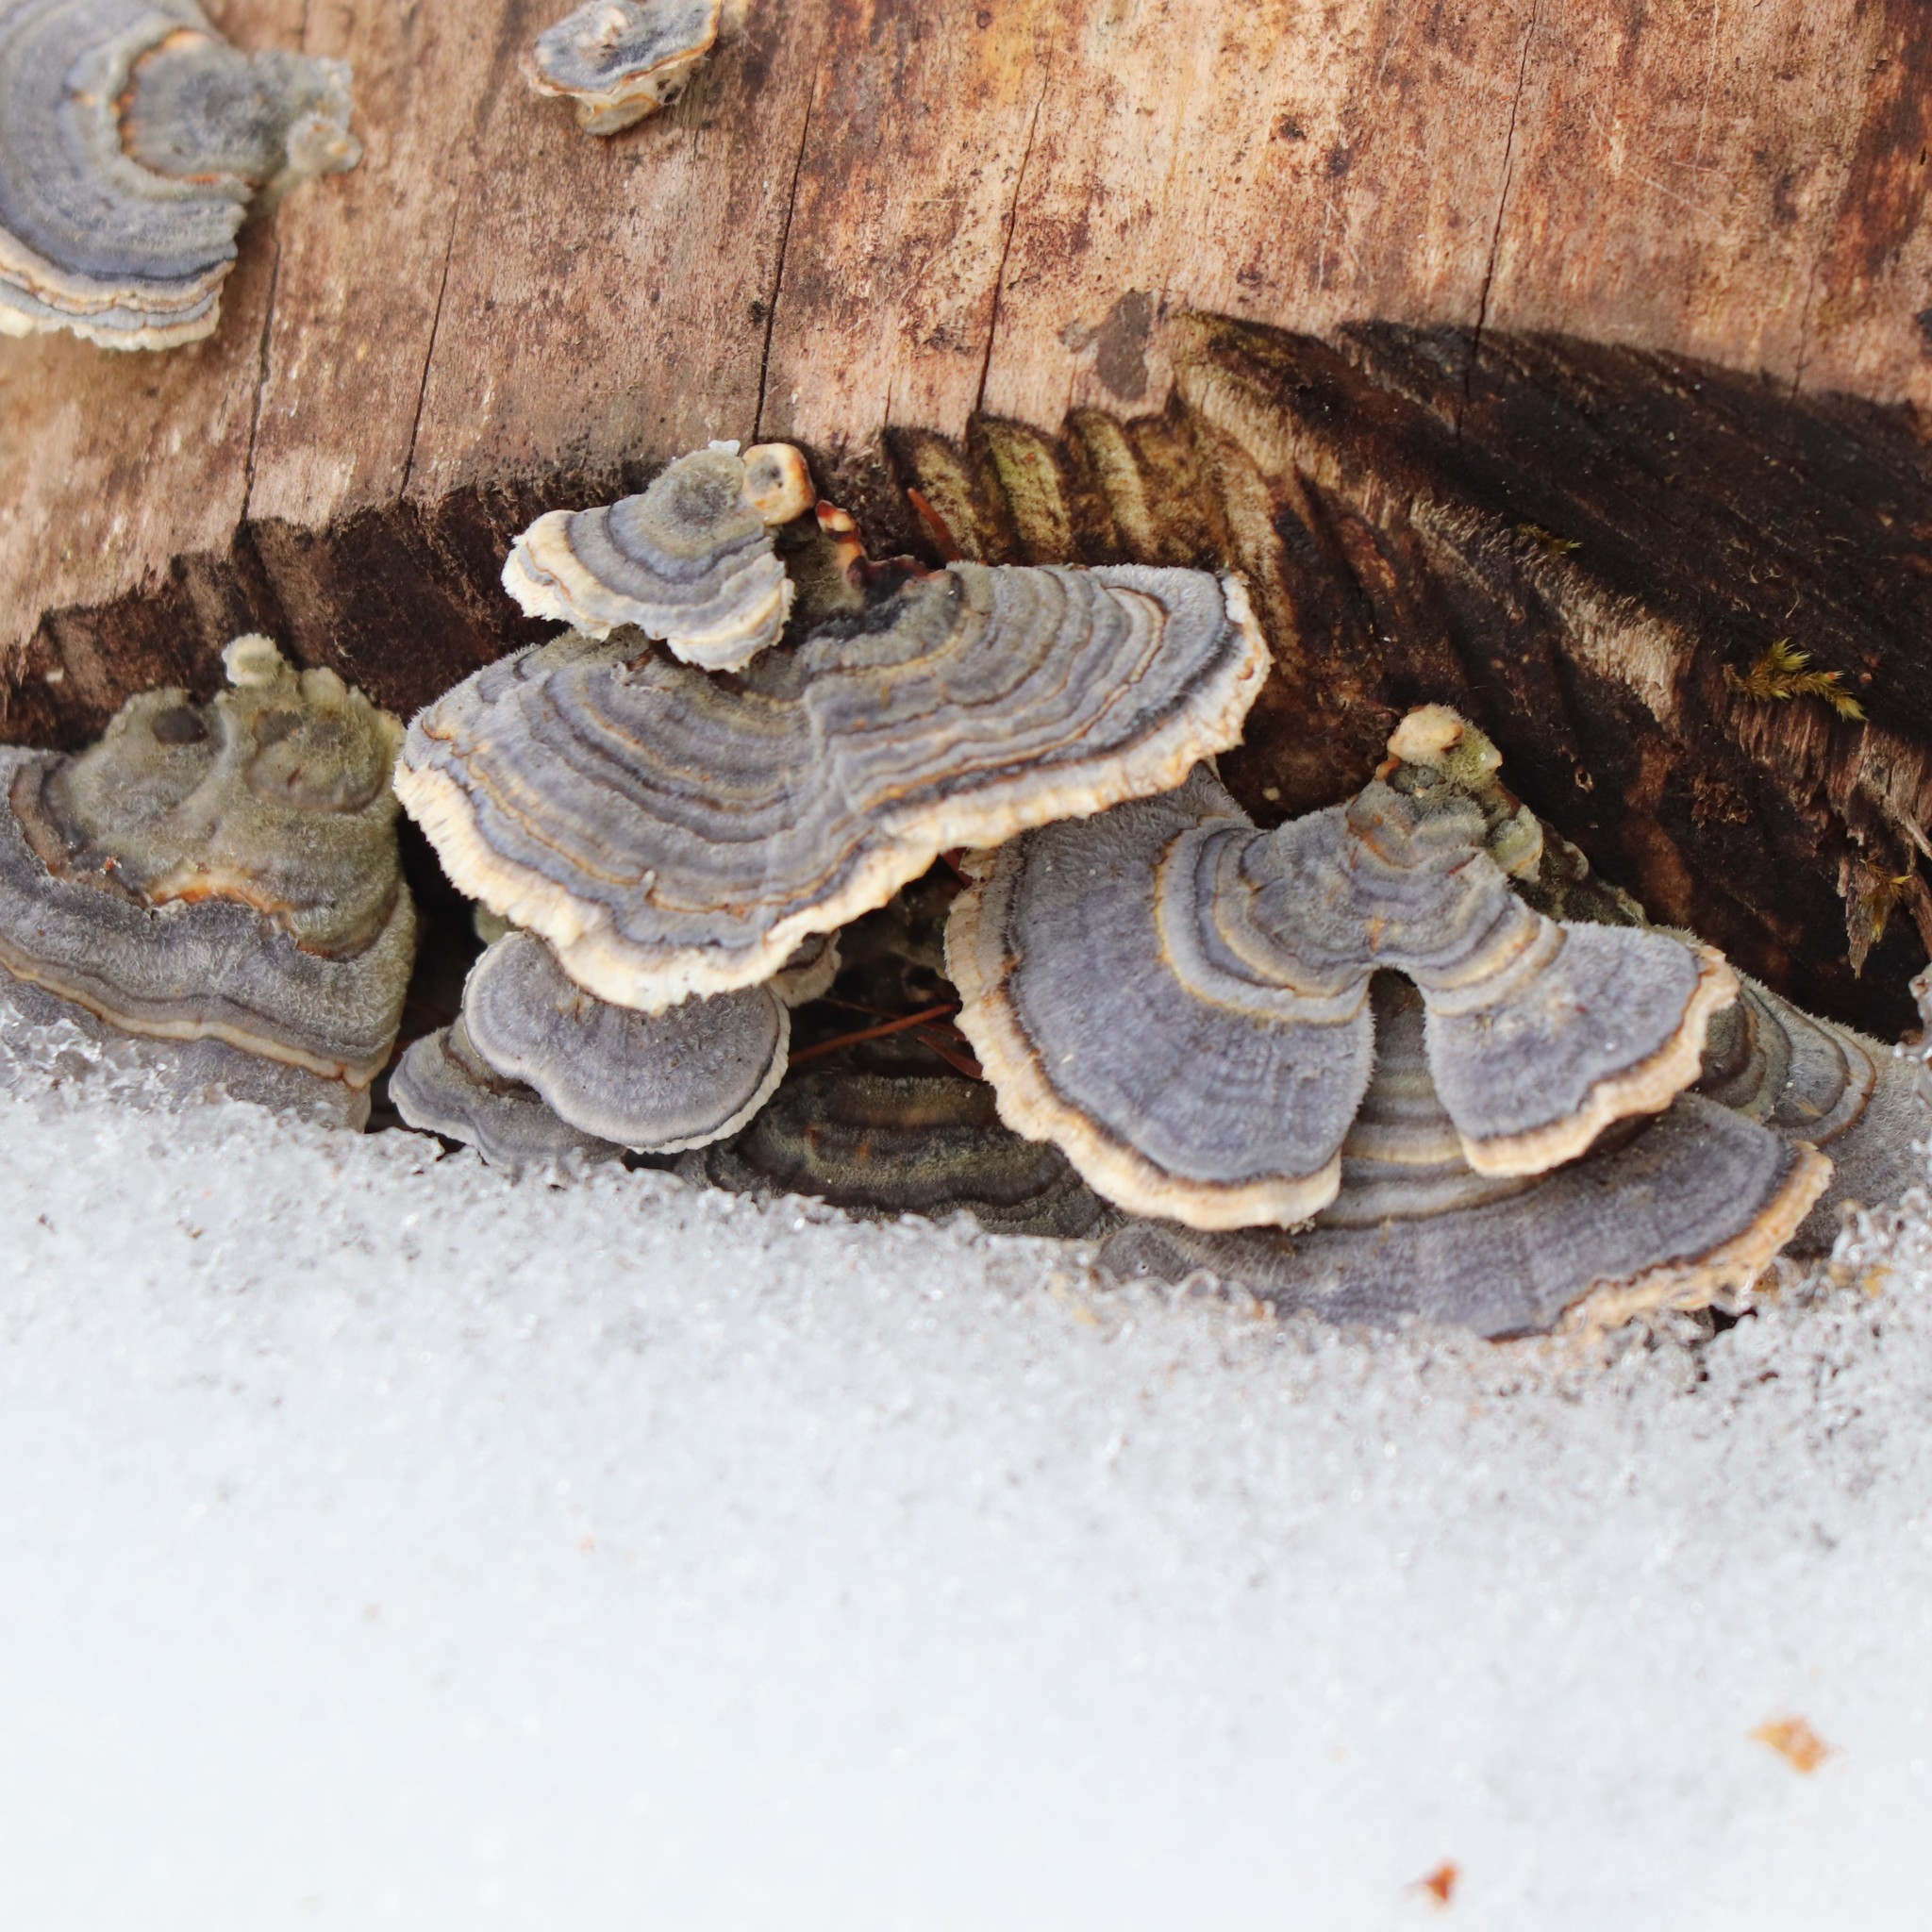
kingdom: Fungi
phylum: Basidiomycota
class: Agaricomycetes
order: Polyporales
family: Polyporaceae
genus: Trametes
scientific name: Trametes versicolor
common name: Turkeytail
